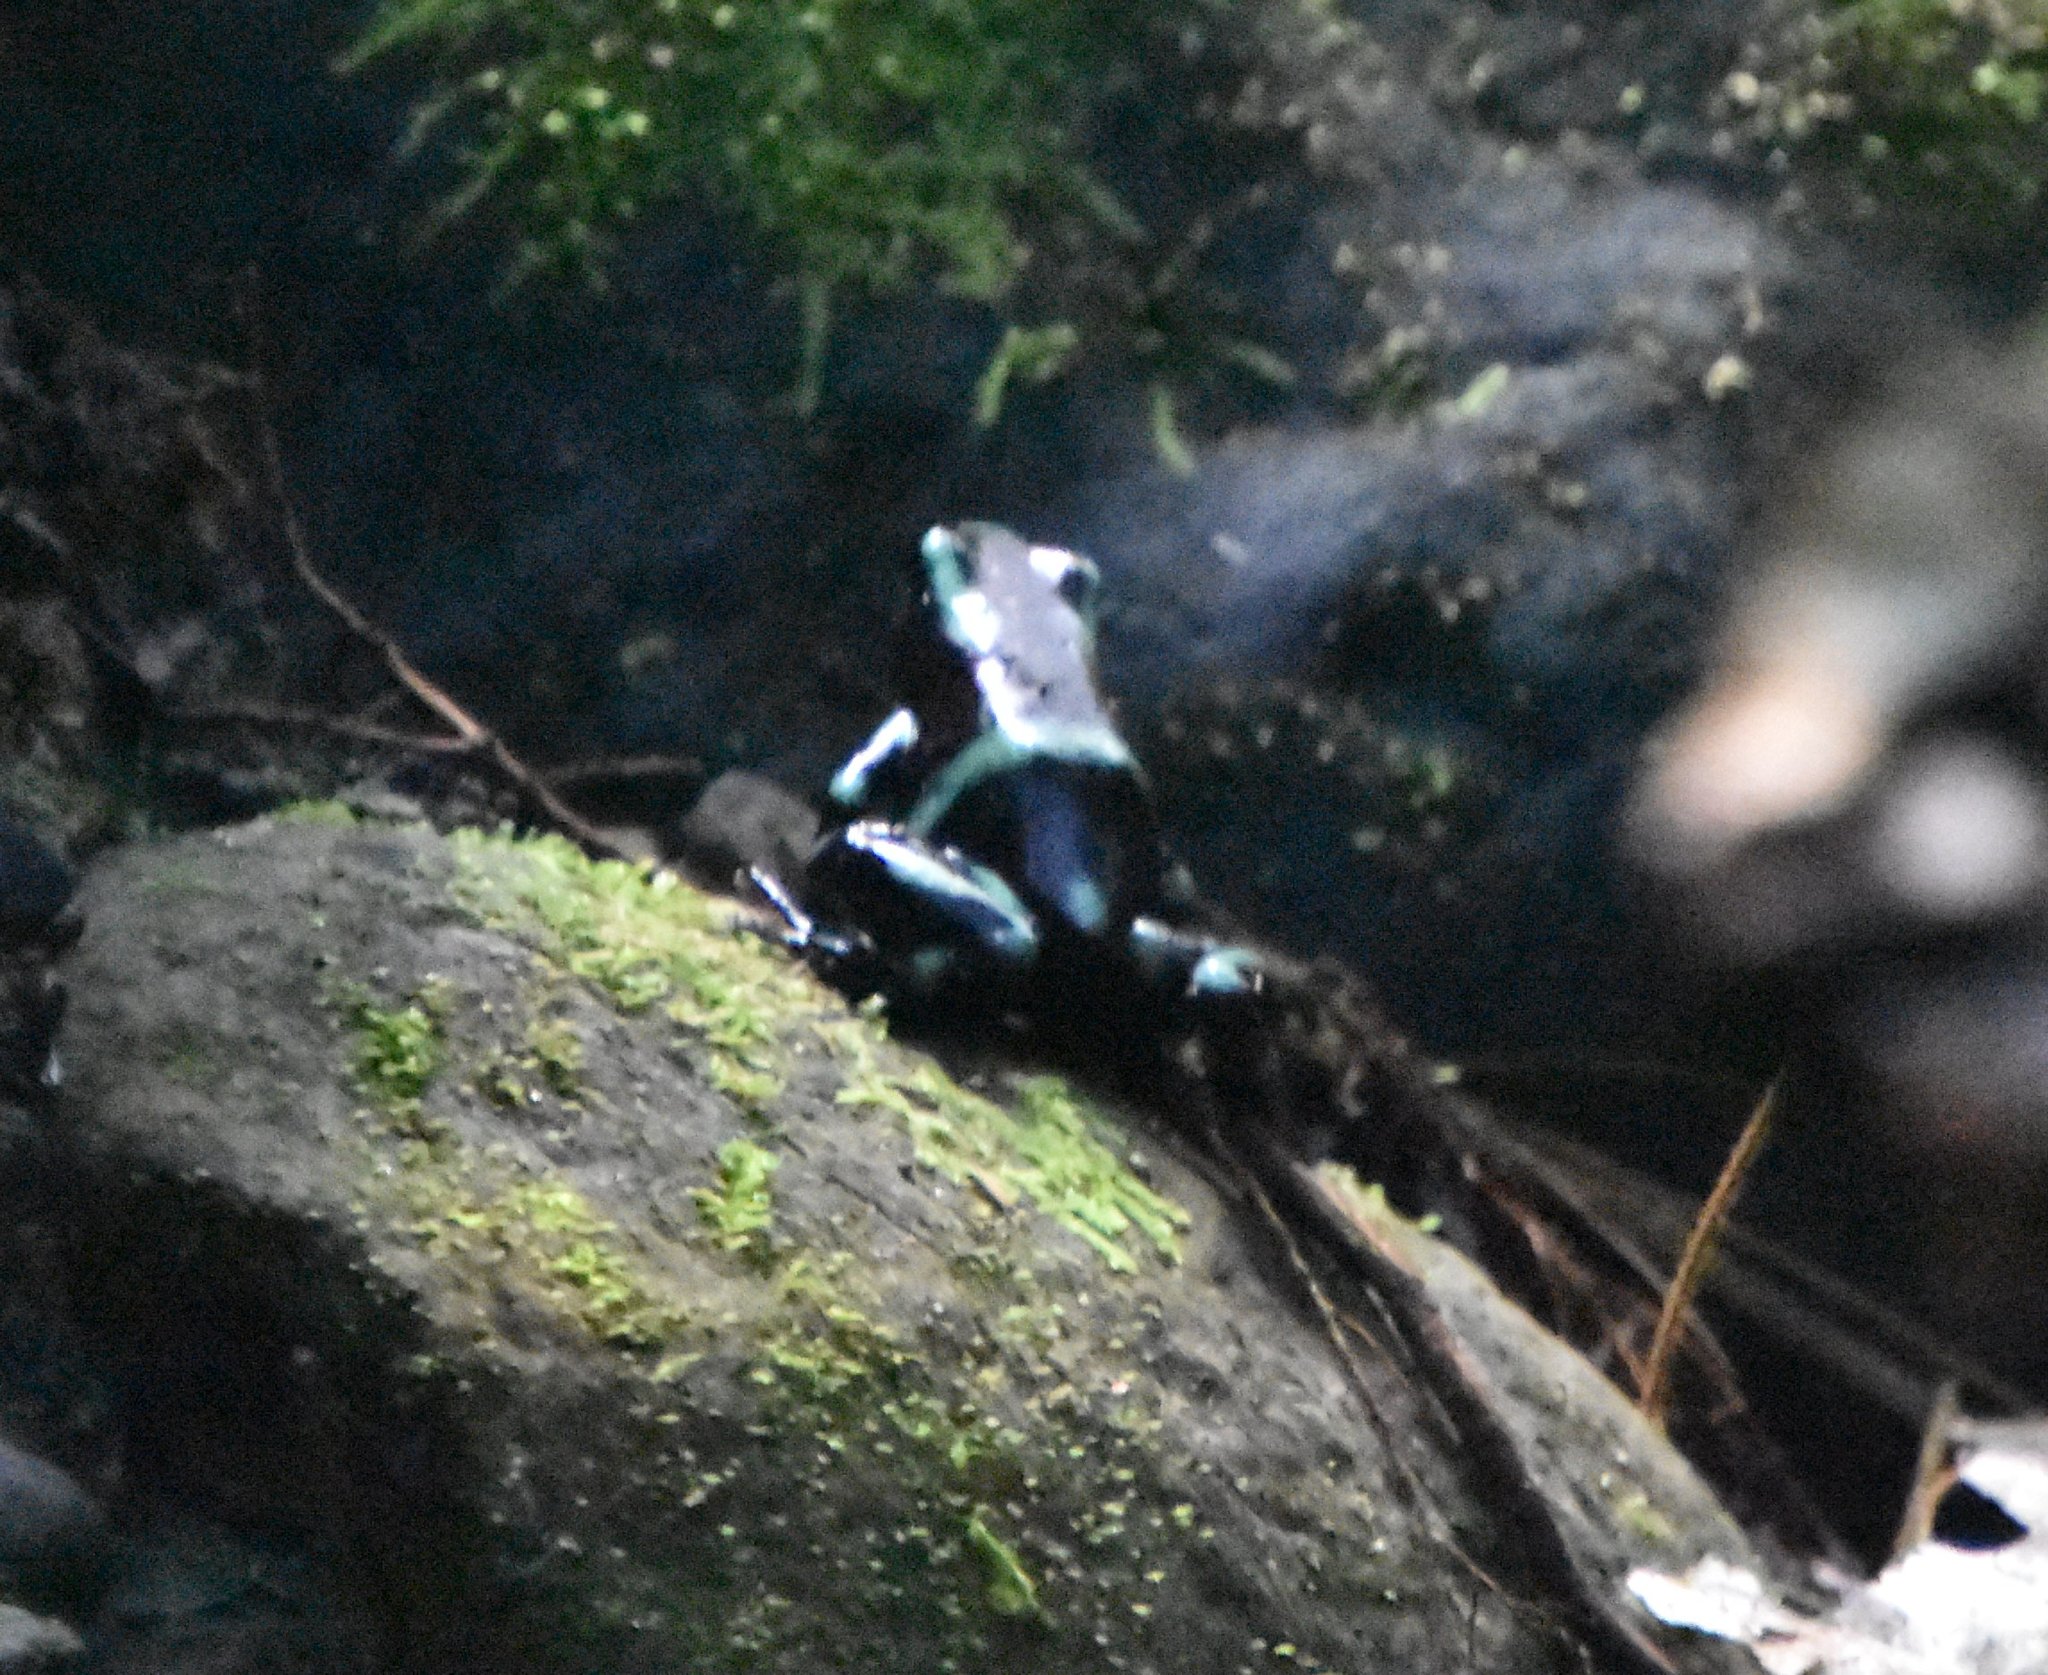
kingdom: Animalia
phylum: Chordata
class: Amphibia
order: Anura
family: Dendrobatidae
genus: Dendrobates
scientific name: Dendrobates auratus
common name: Green and black poison dart frog
